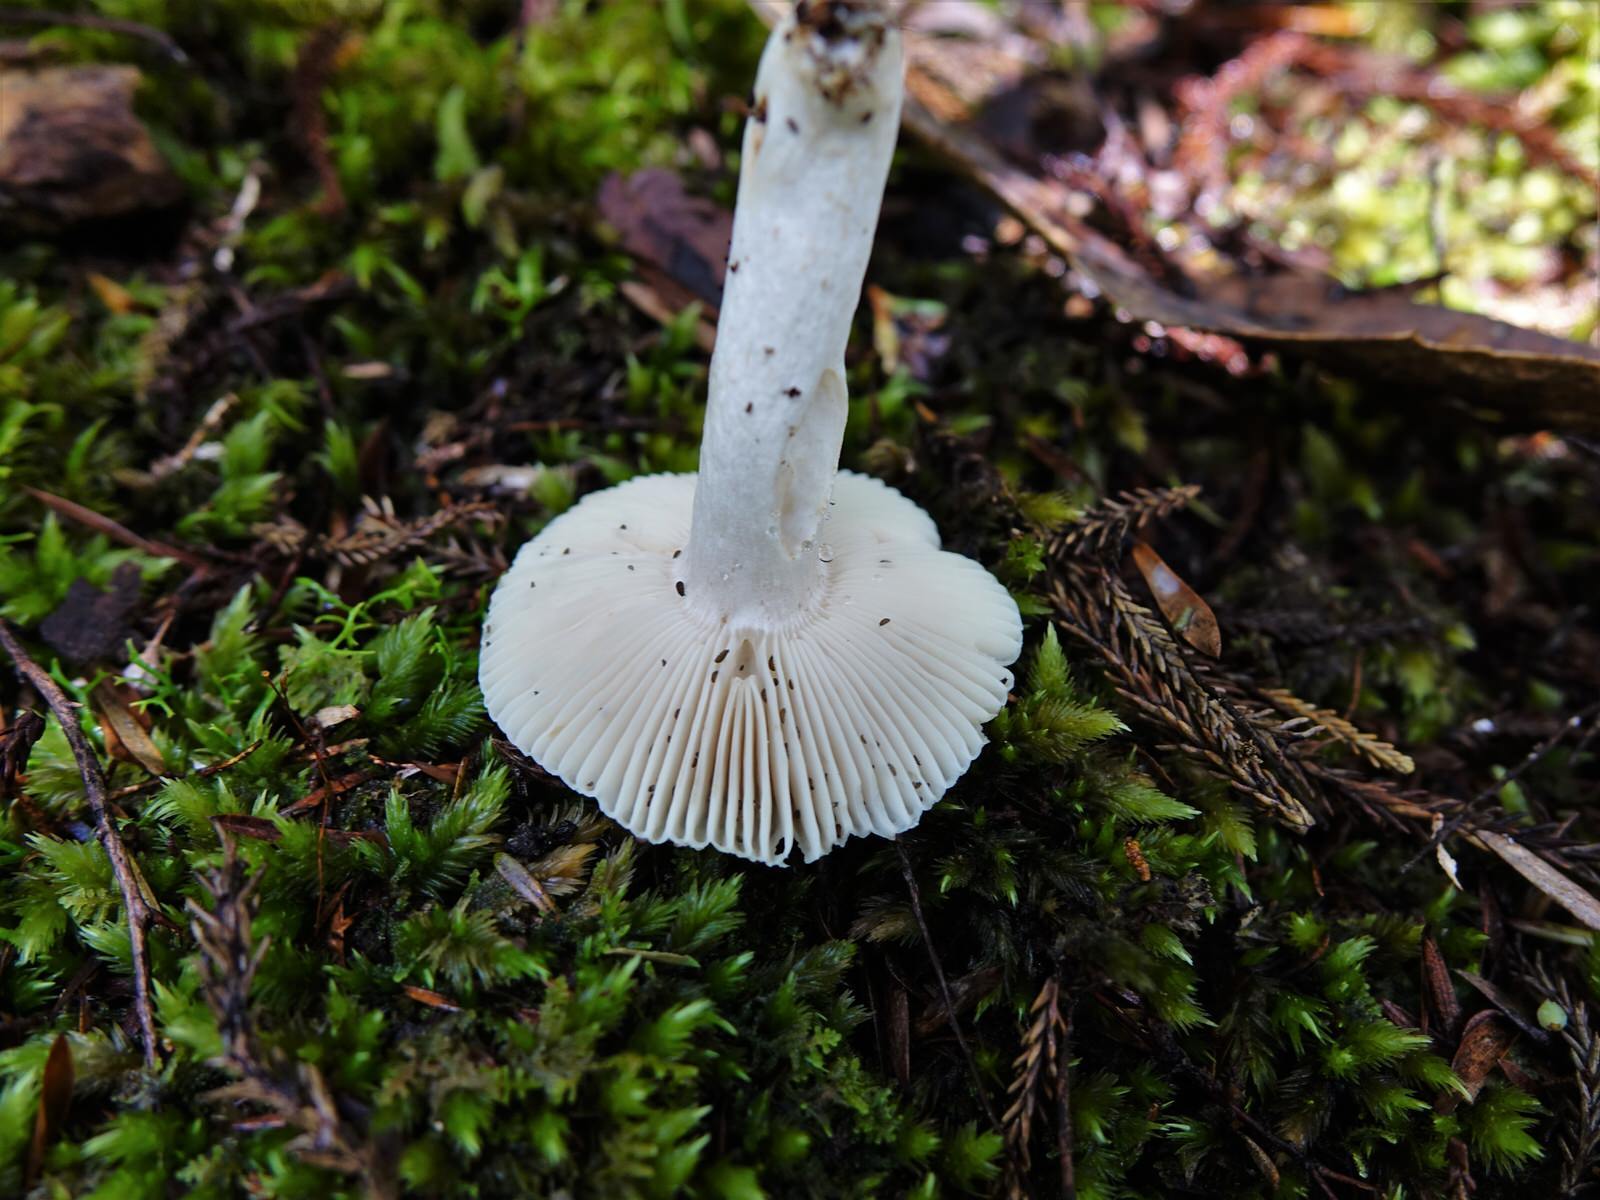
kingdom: Fungi
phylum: Basidiomycota
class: Agaricomycetes
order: Russulales
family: Russulaceae
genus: Russula
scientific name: Russula albolutescens
